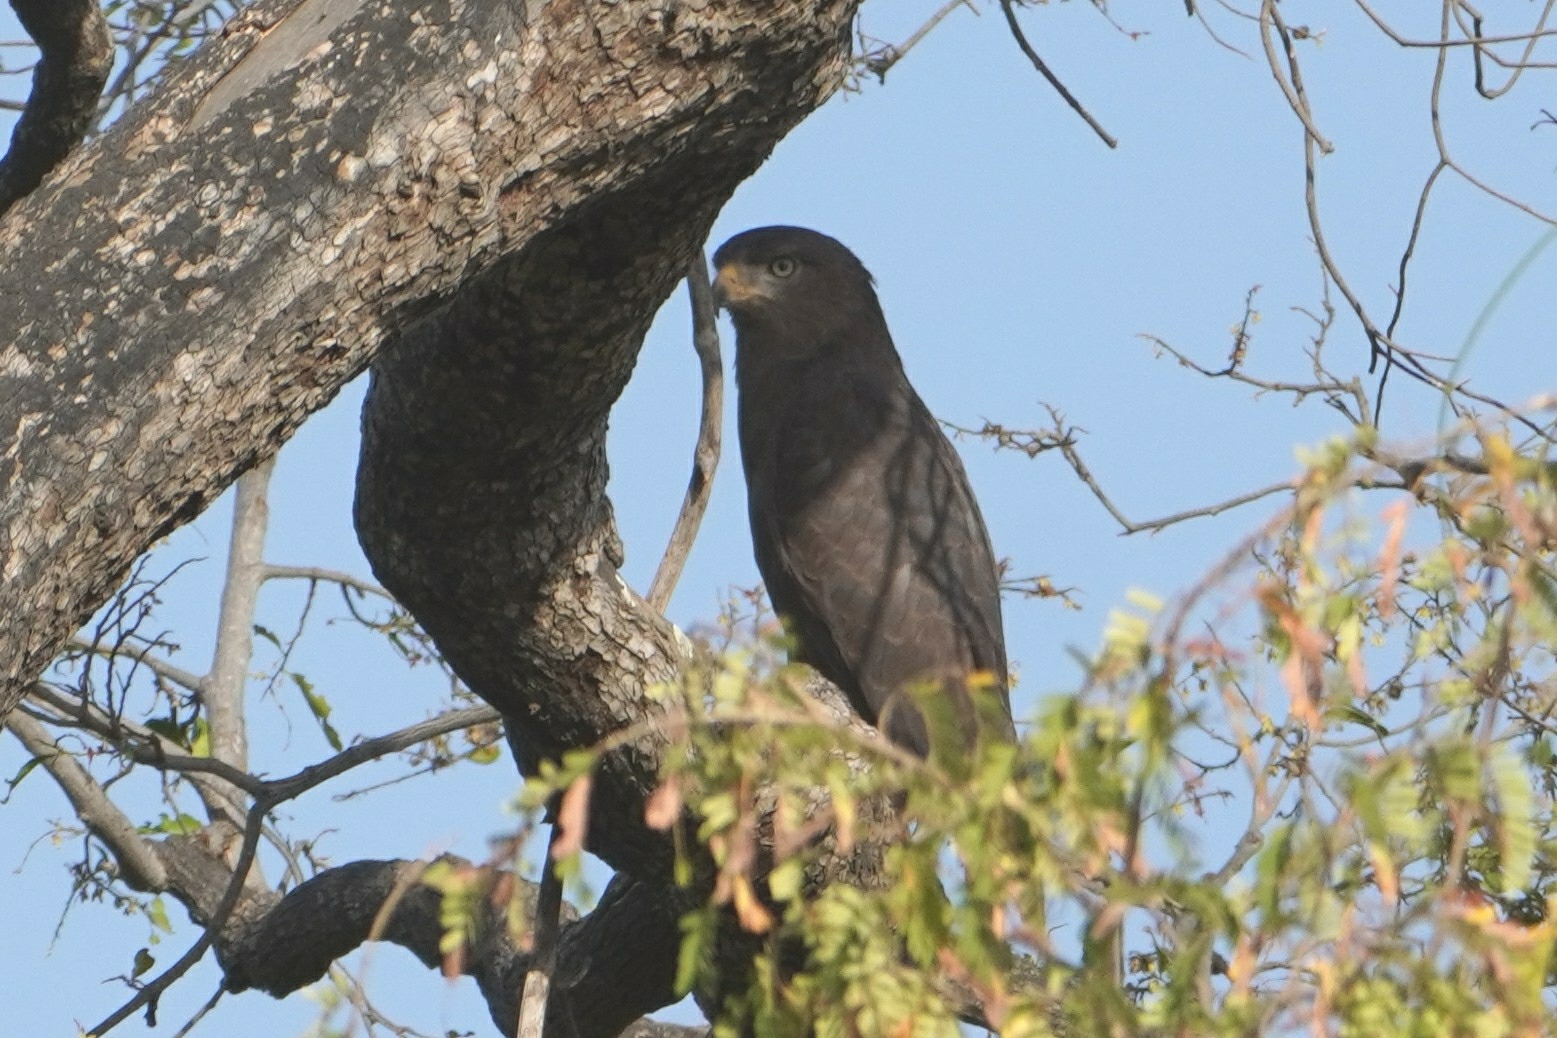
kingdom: Animalia
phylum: Chordata
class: Aves
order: Accipitriformes
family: Accipitridae
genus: Circaetus
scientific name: Circaetus cinerascens
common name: Western banded snake eagle
